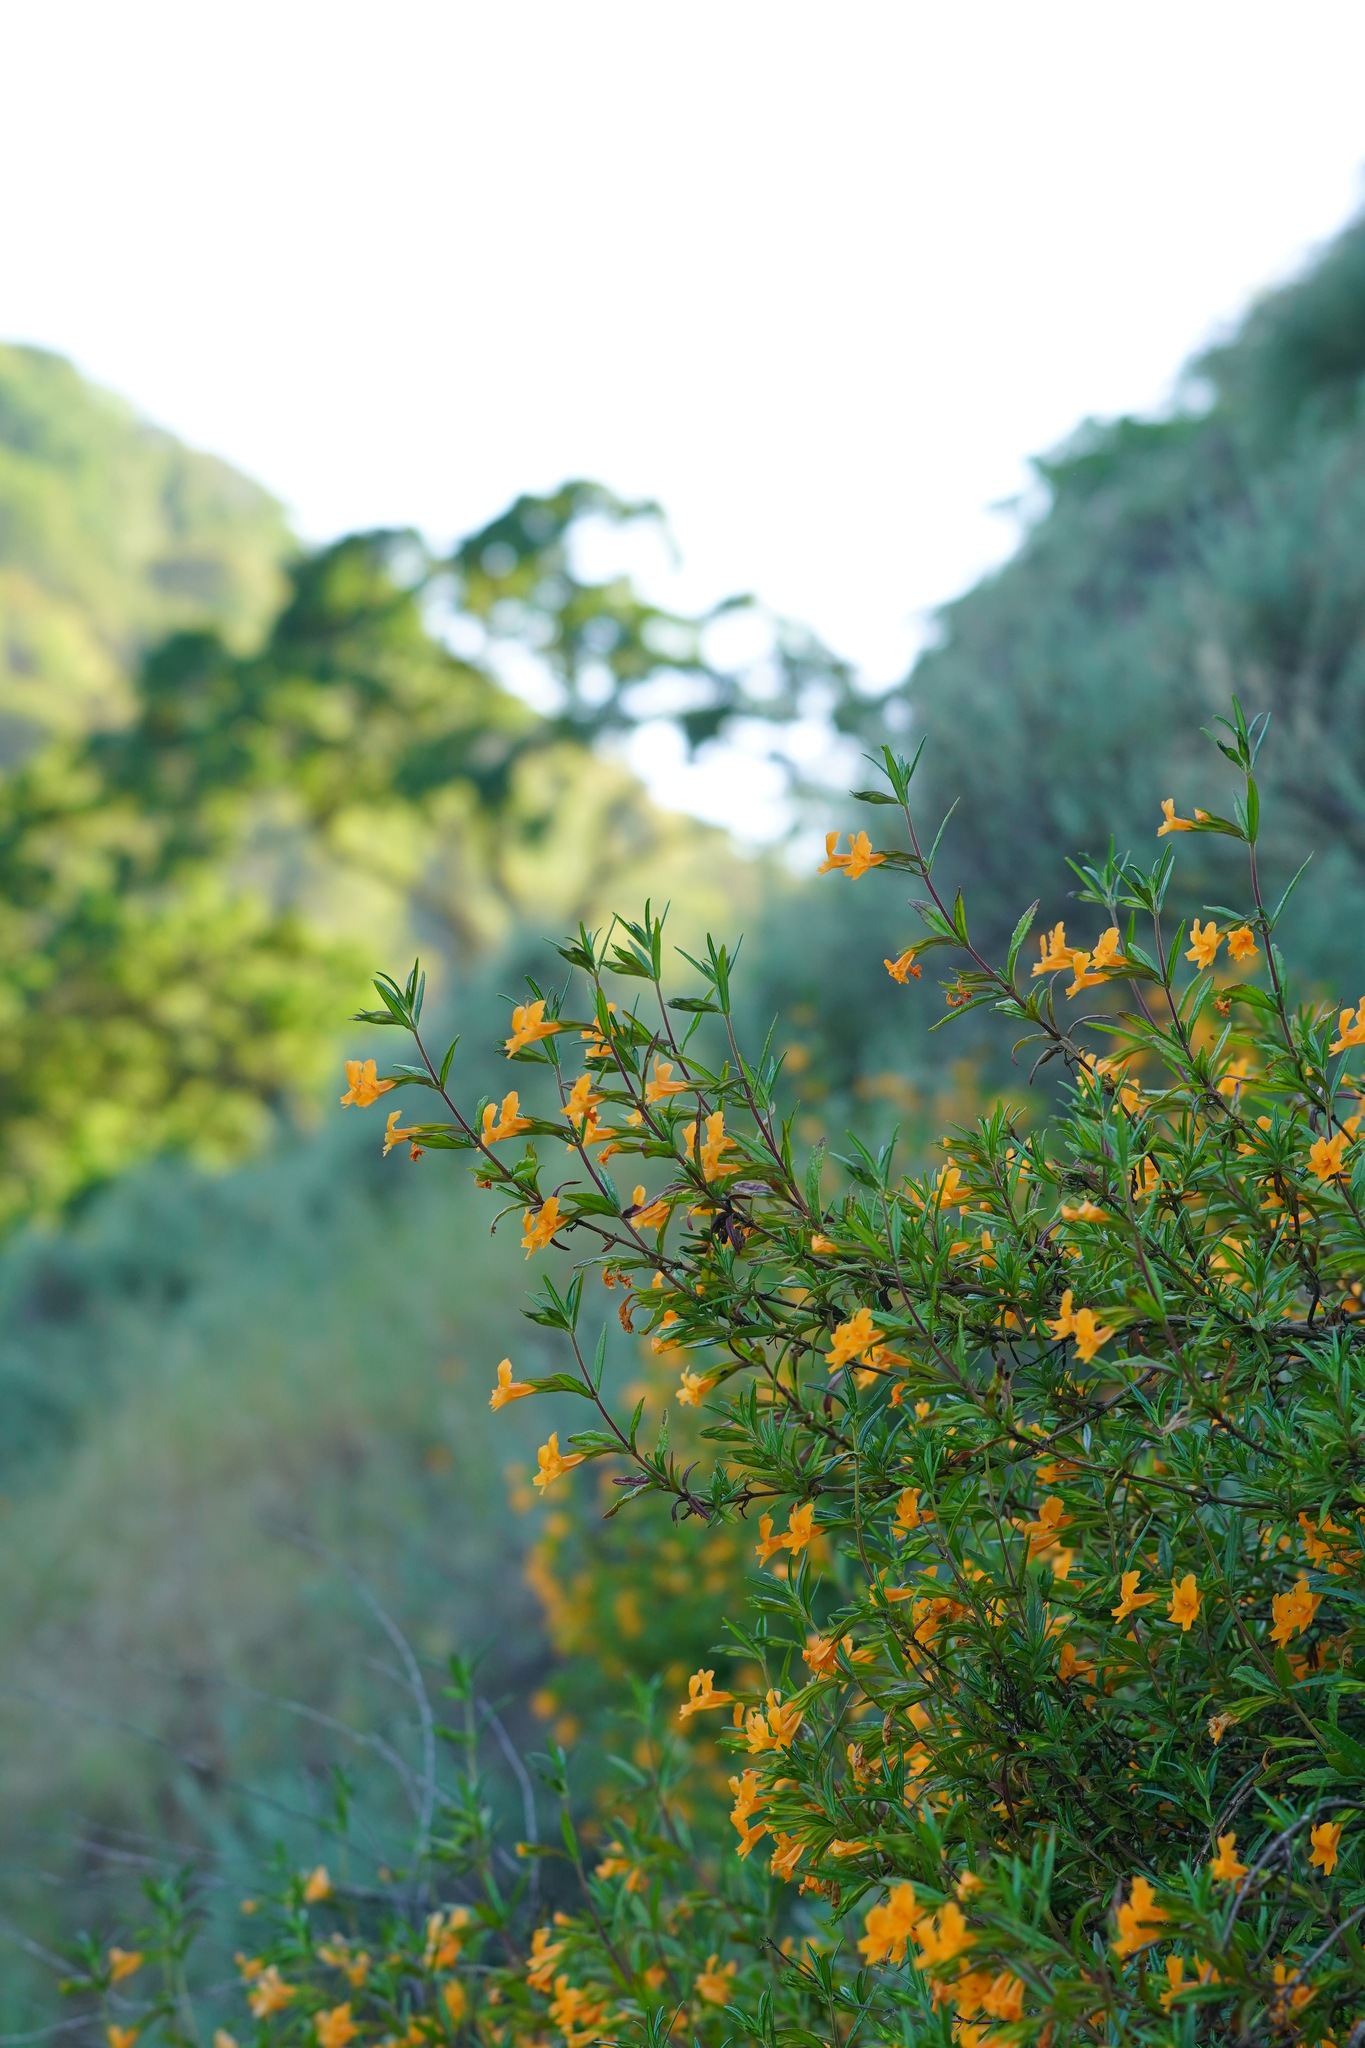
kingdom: Plantae
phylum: Tracheophyta
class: Magnoliopsida
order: Lamiales
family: Phrymaceae
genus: Diplacus
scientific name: Diplacus aurantiacus
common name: Bush monkey-flower
